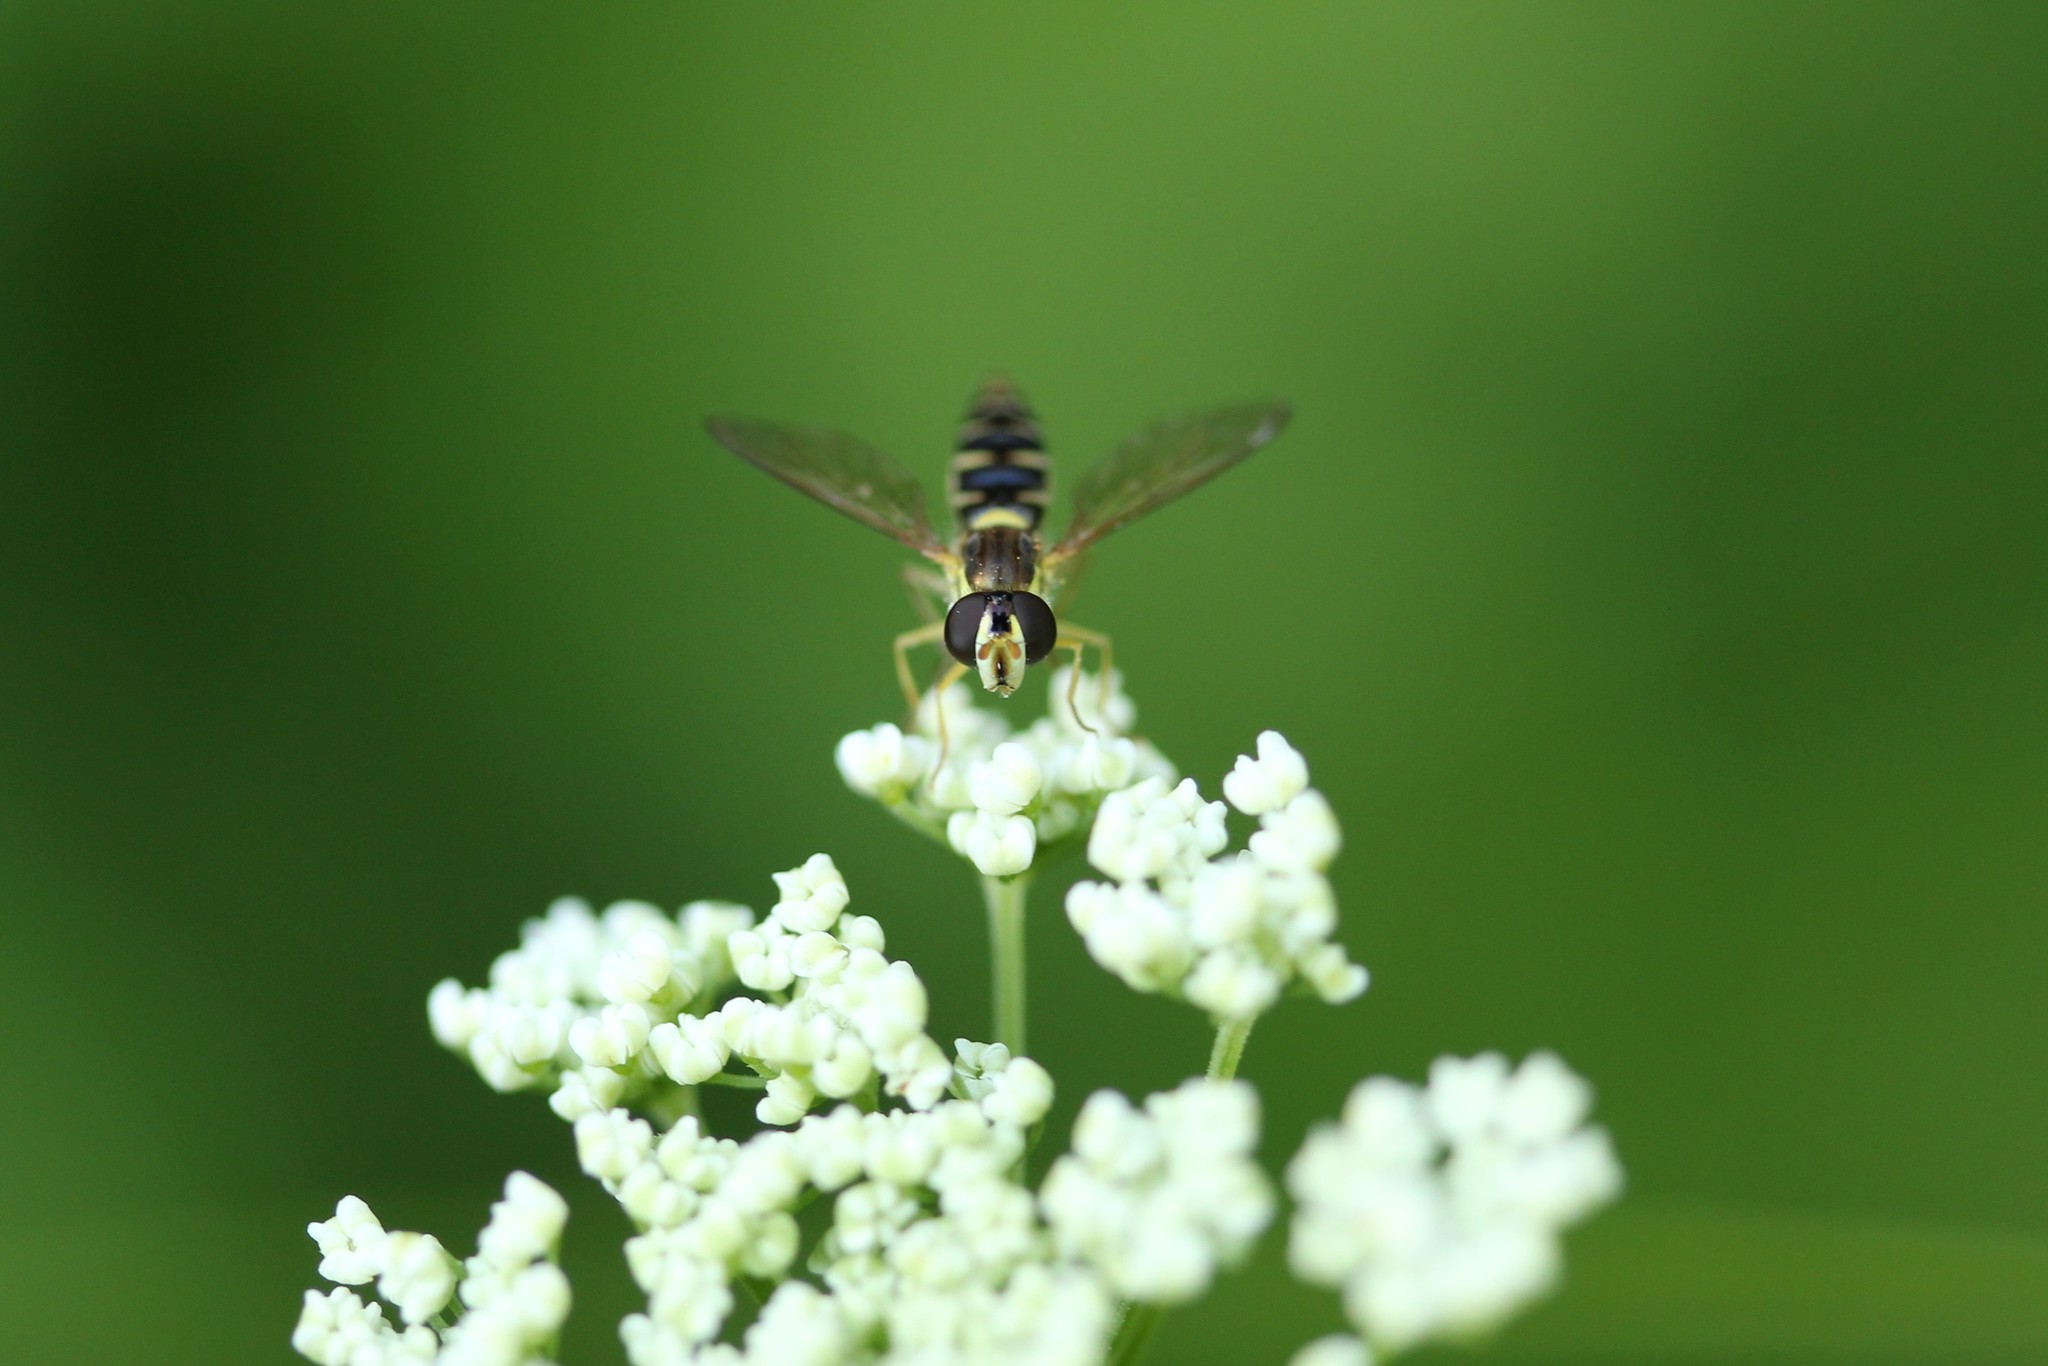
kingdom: Animalia
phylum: Arthropoda
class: Insecta
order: Diptera
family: Syrphidae
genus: Sphaerophoria
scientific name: Sphaerophoria
